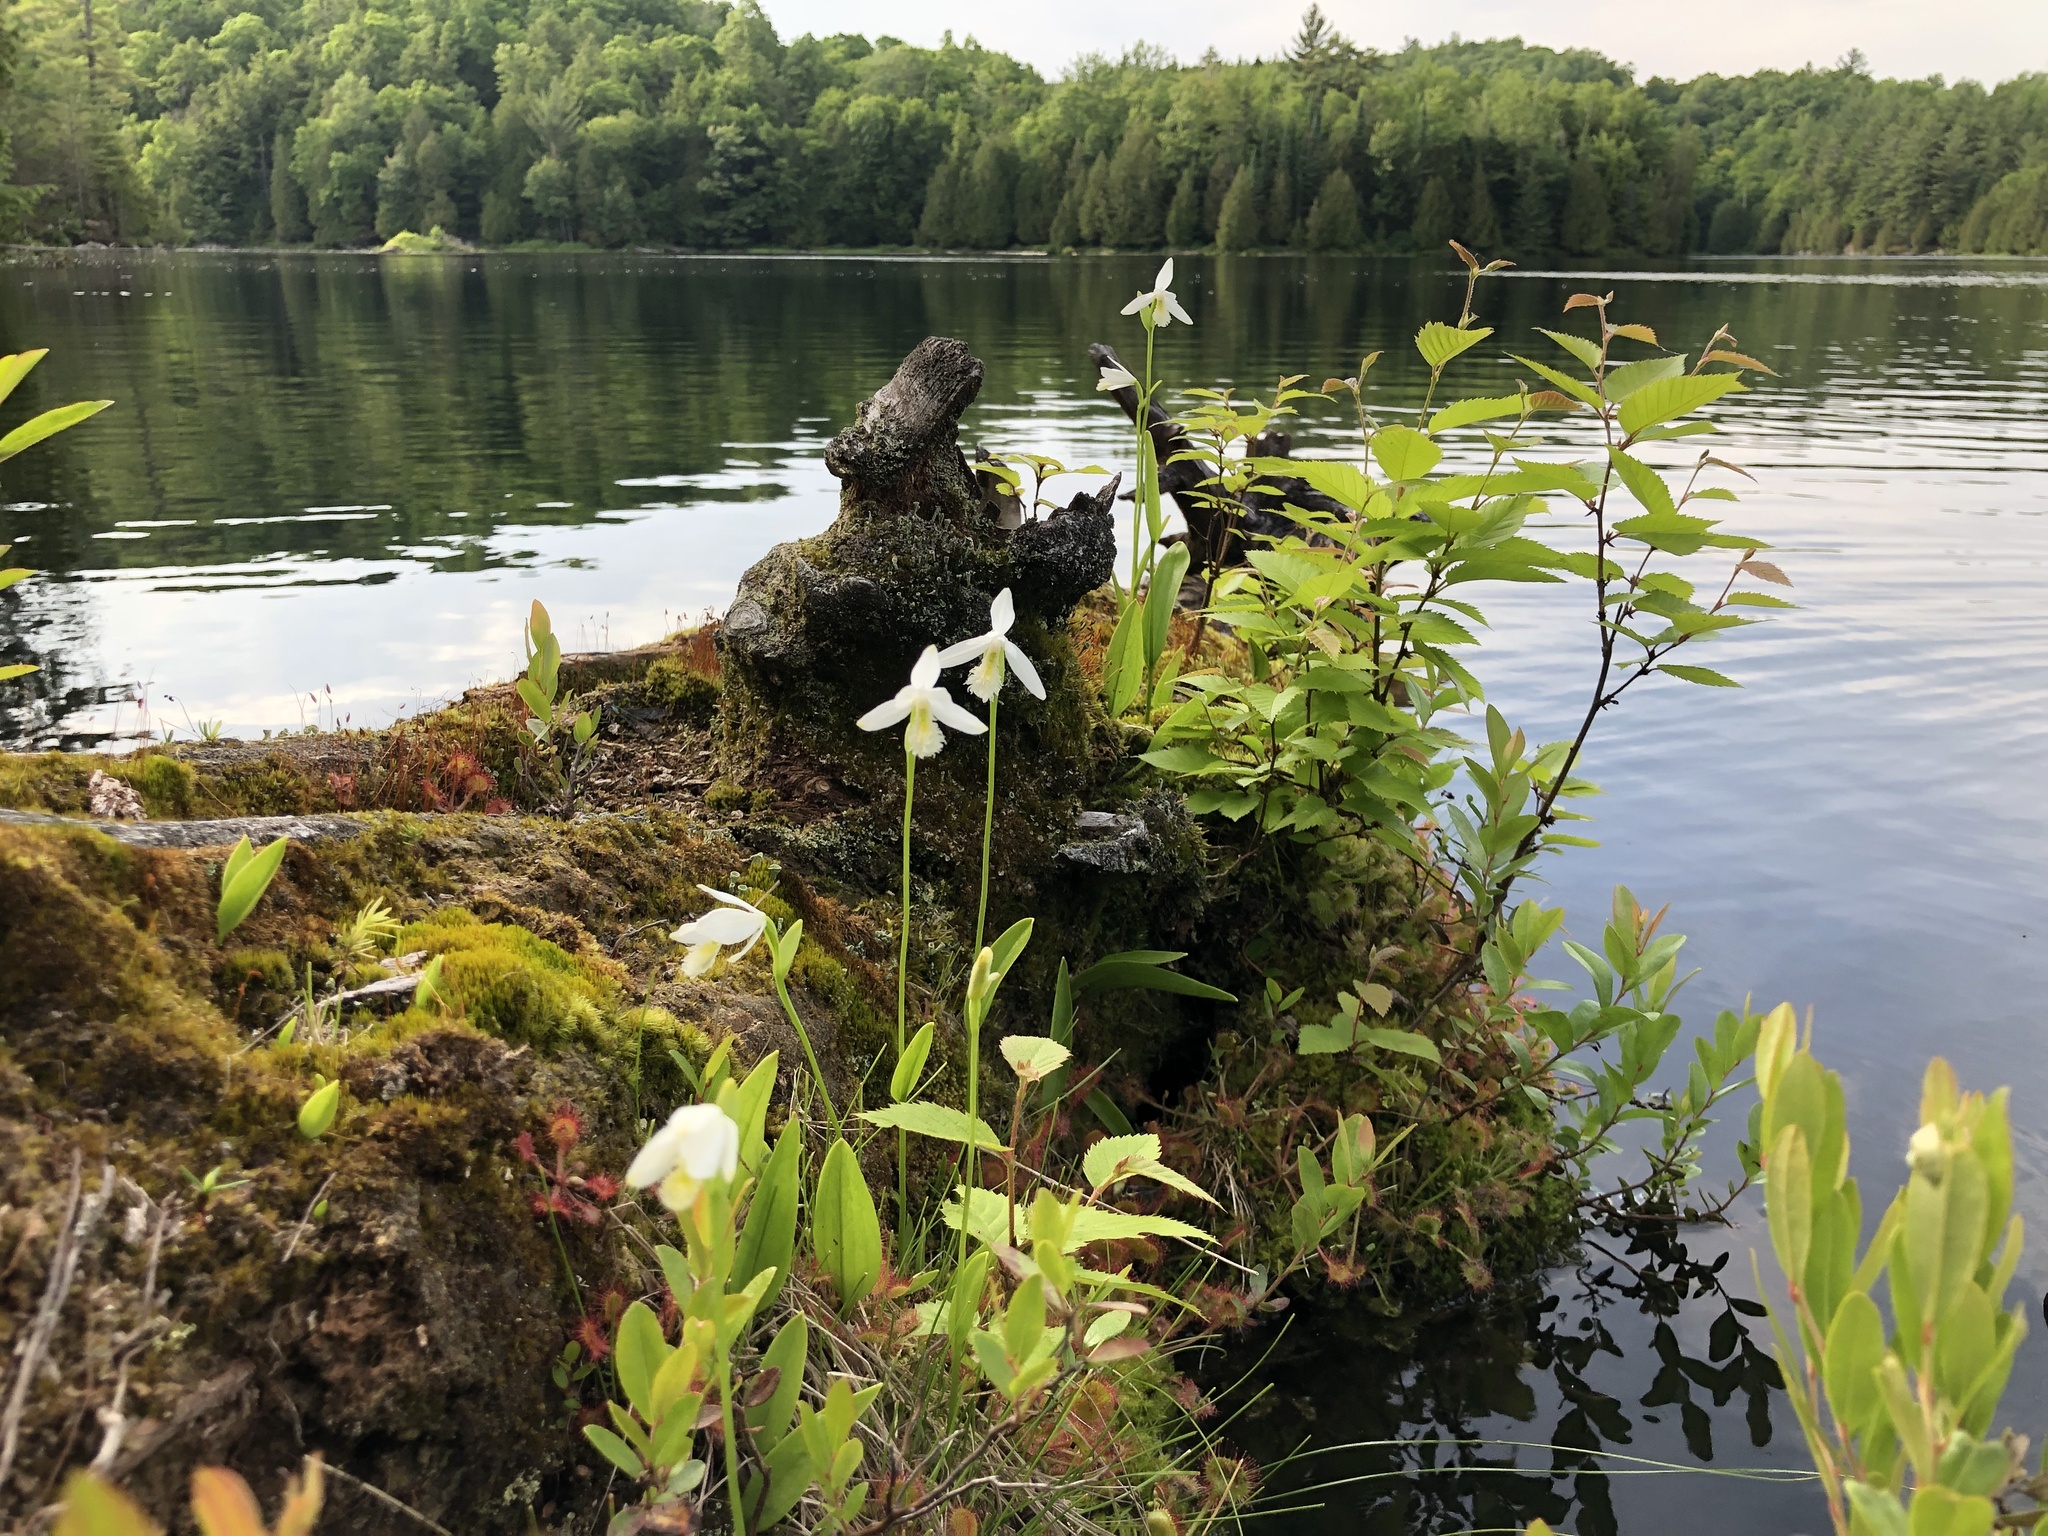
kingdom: Plantae
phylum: Tracheophyta
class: Liliopsida
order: Asparagales
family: Orchidaceae
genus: Pogonia
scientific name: Pogonia ophioglossoides
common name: Rose pogonia
